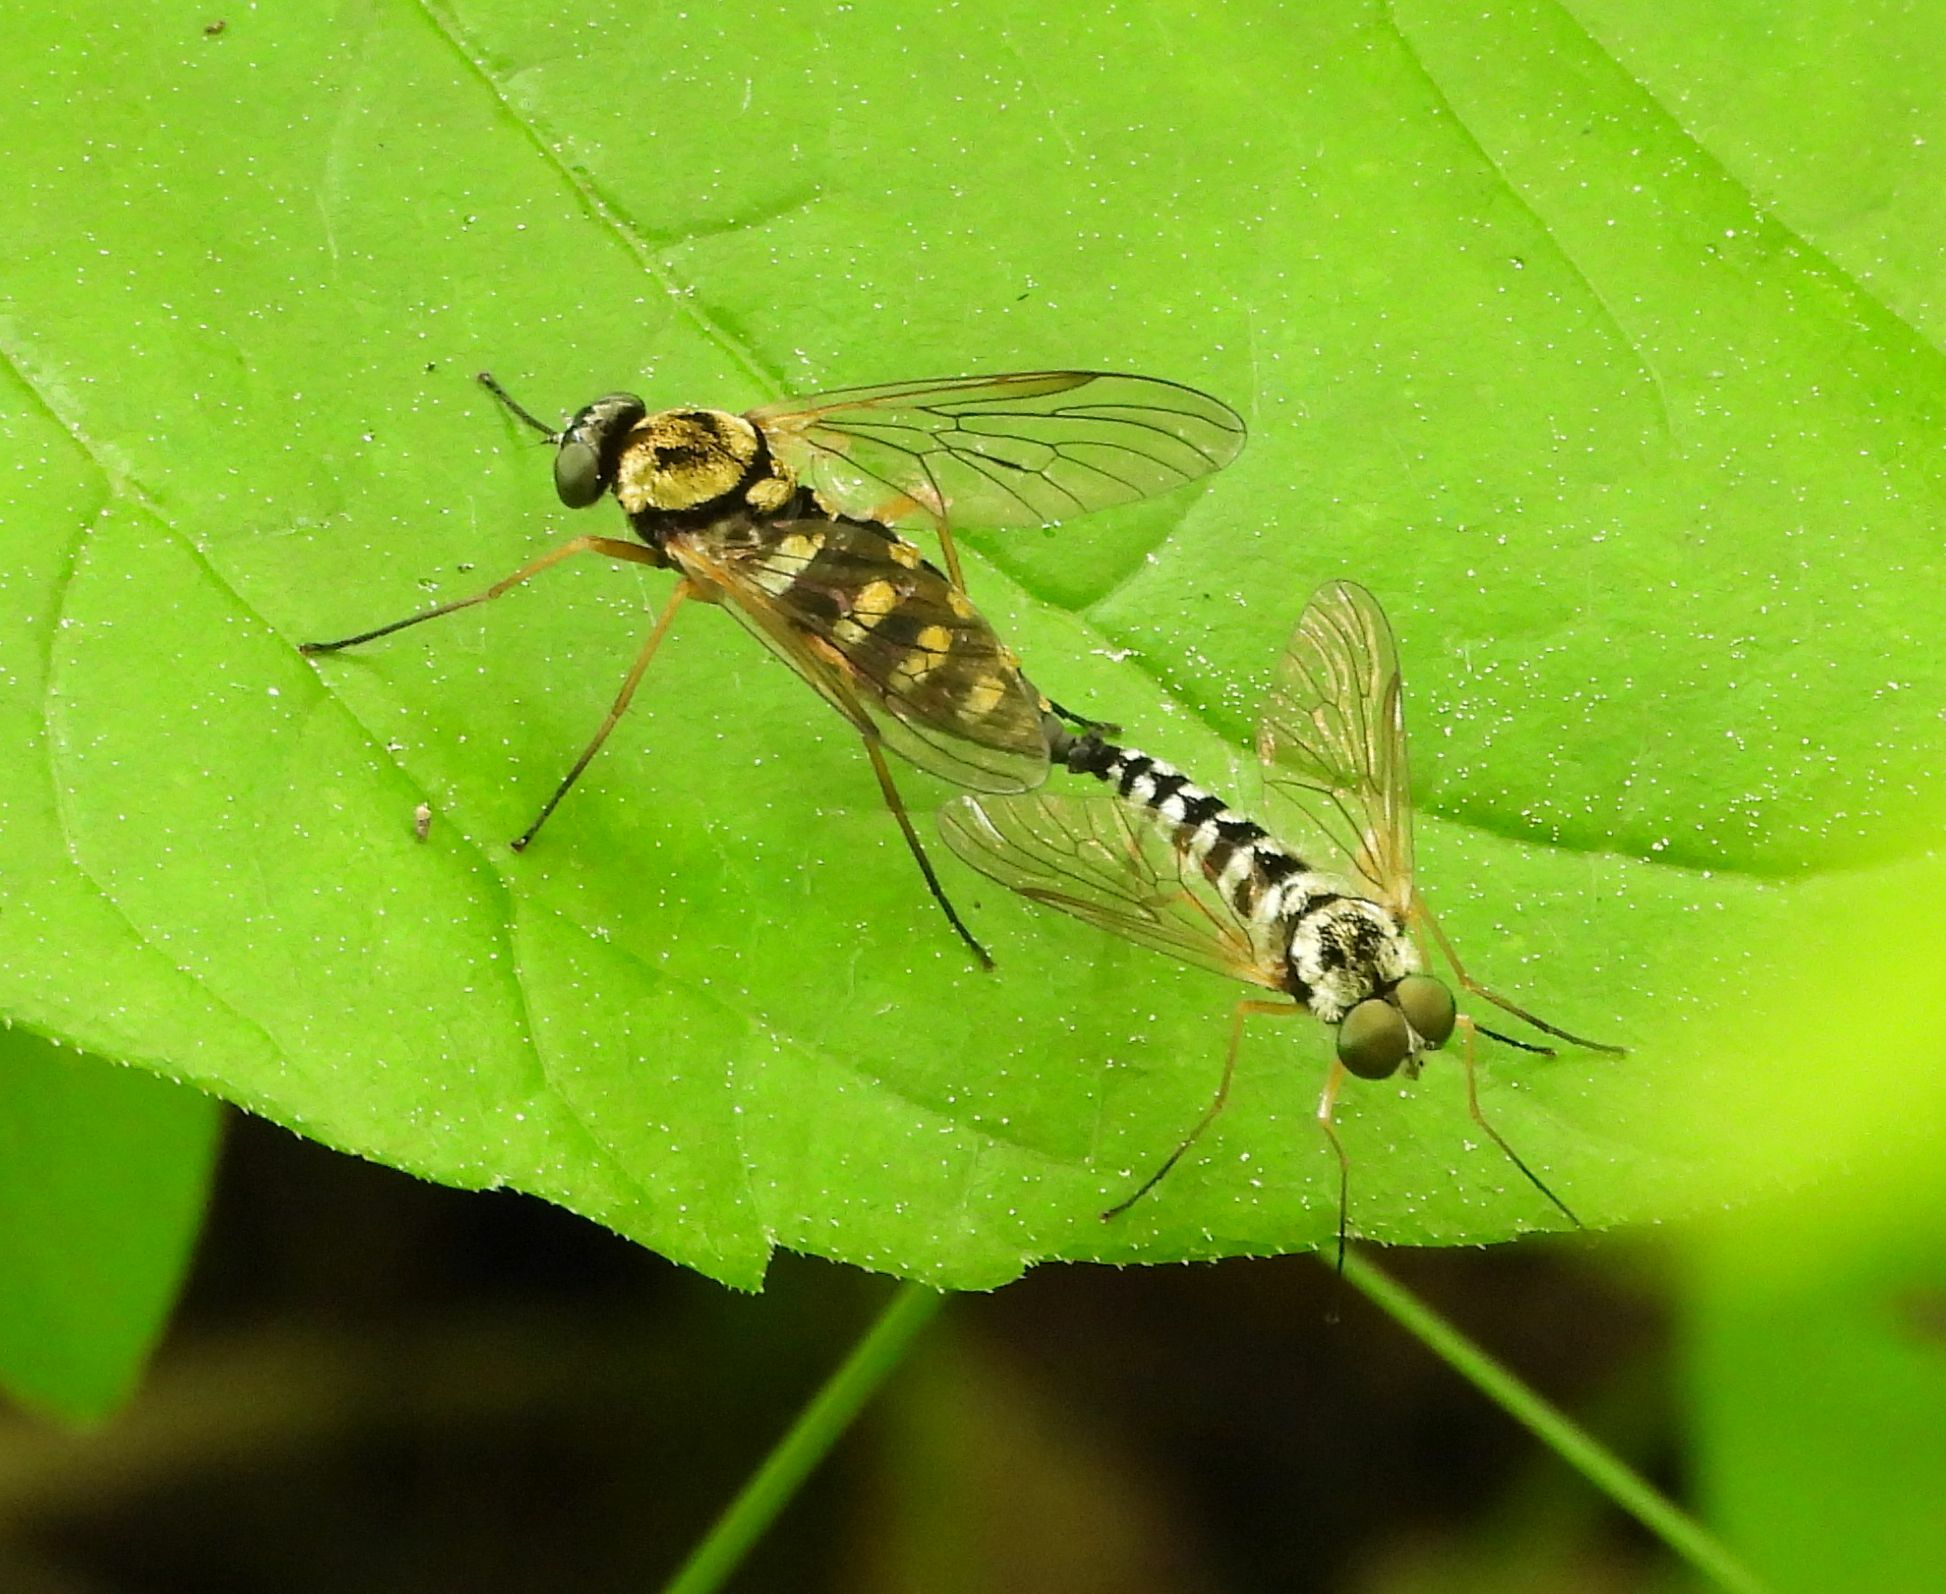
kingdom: Animalia
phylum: Arthropoda
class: Insecta
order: Diptera
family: Rhagionidae
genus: Chrysopilus
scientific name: Chrysopilus ornatus
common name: Ornate snipe fly
